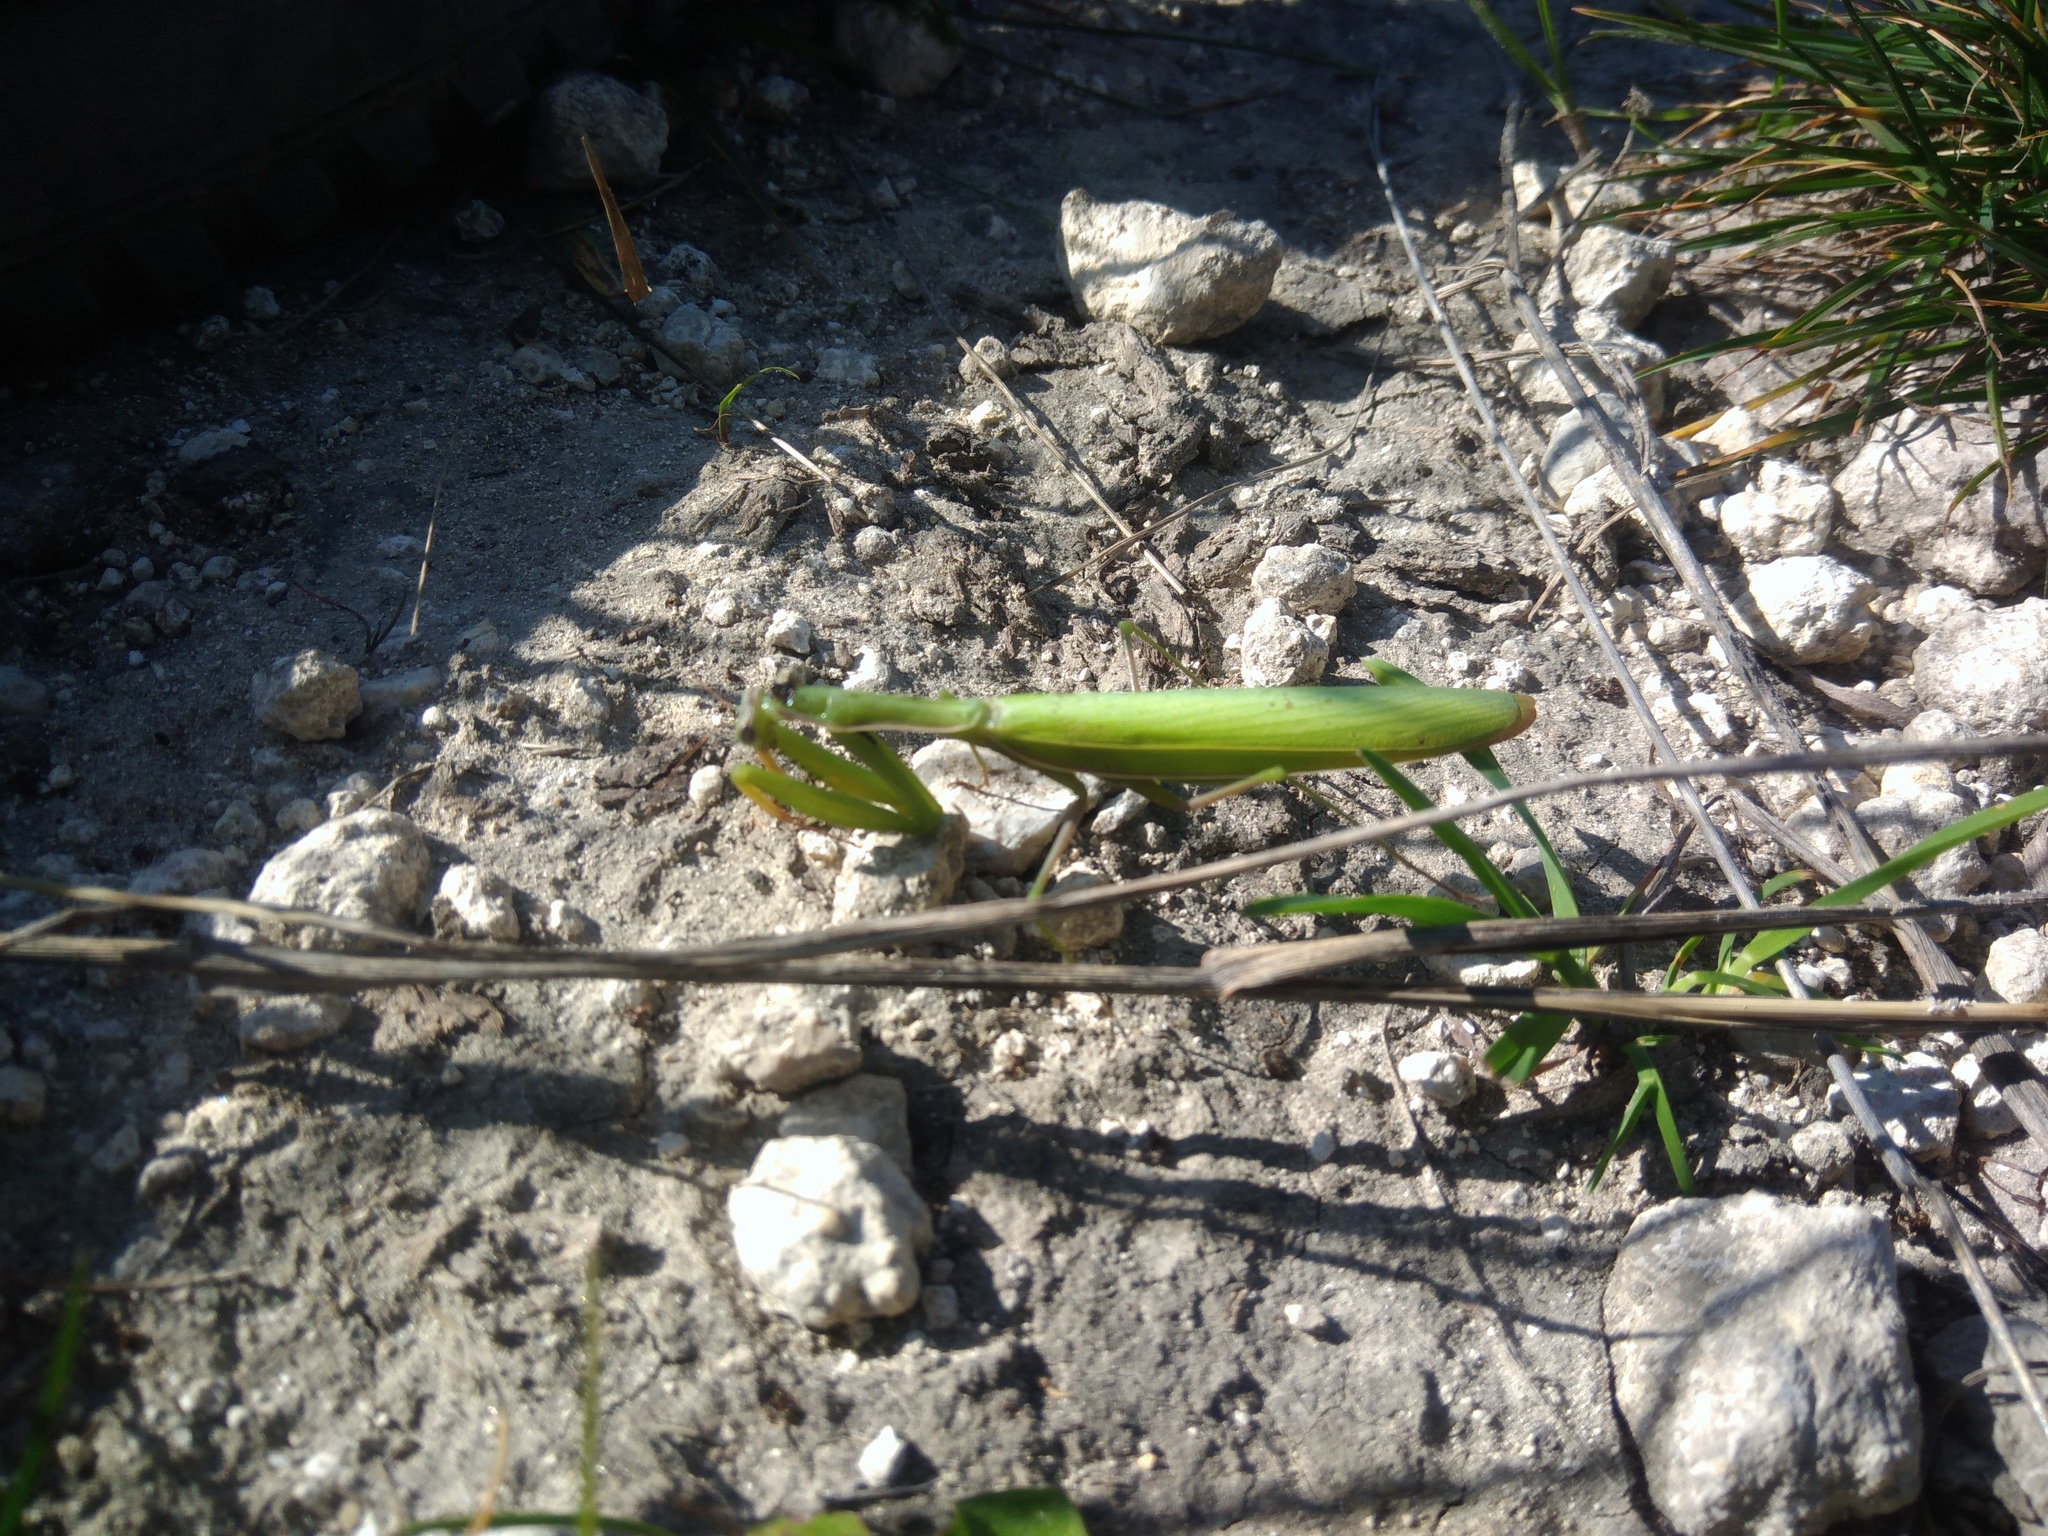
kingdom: Animalia
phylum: Arthropoda
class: Insecta
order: Mantodea
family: Mantidae
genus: Mantis
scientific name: Mantis religiosa
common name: Praying mantis
